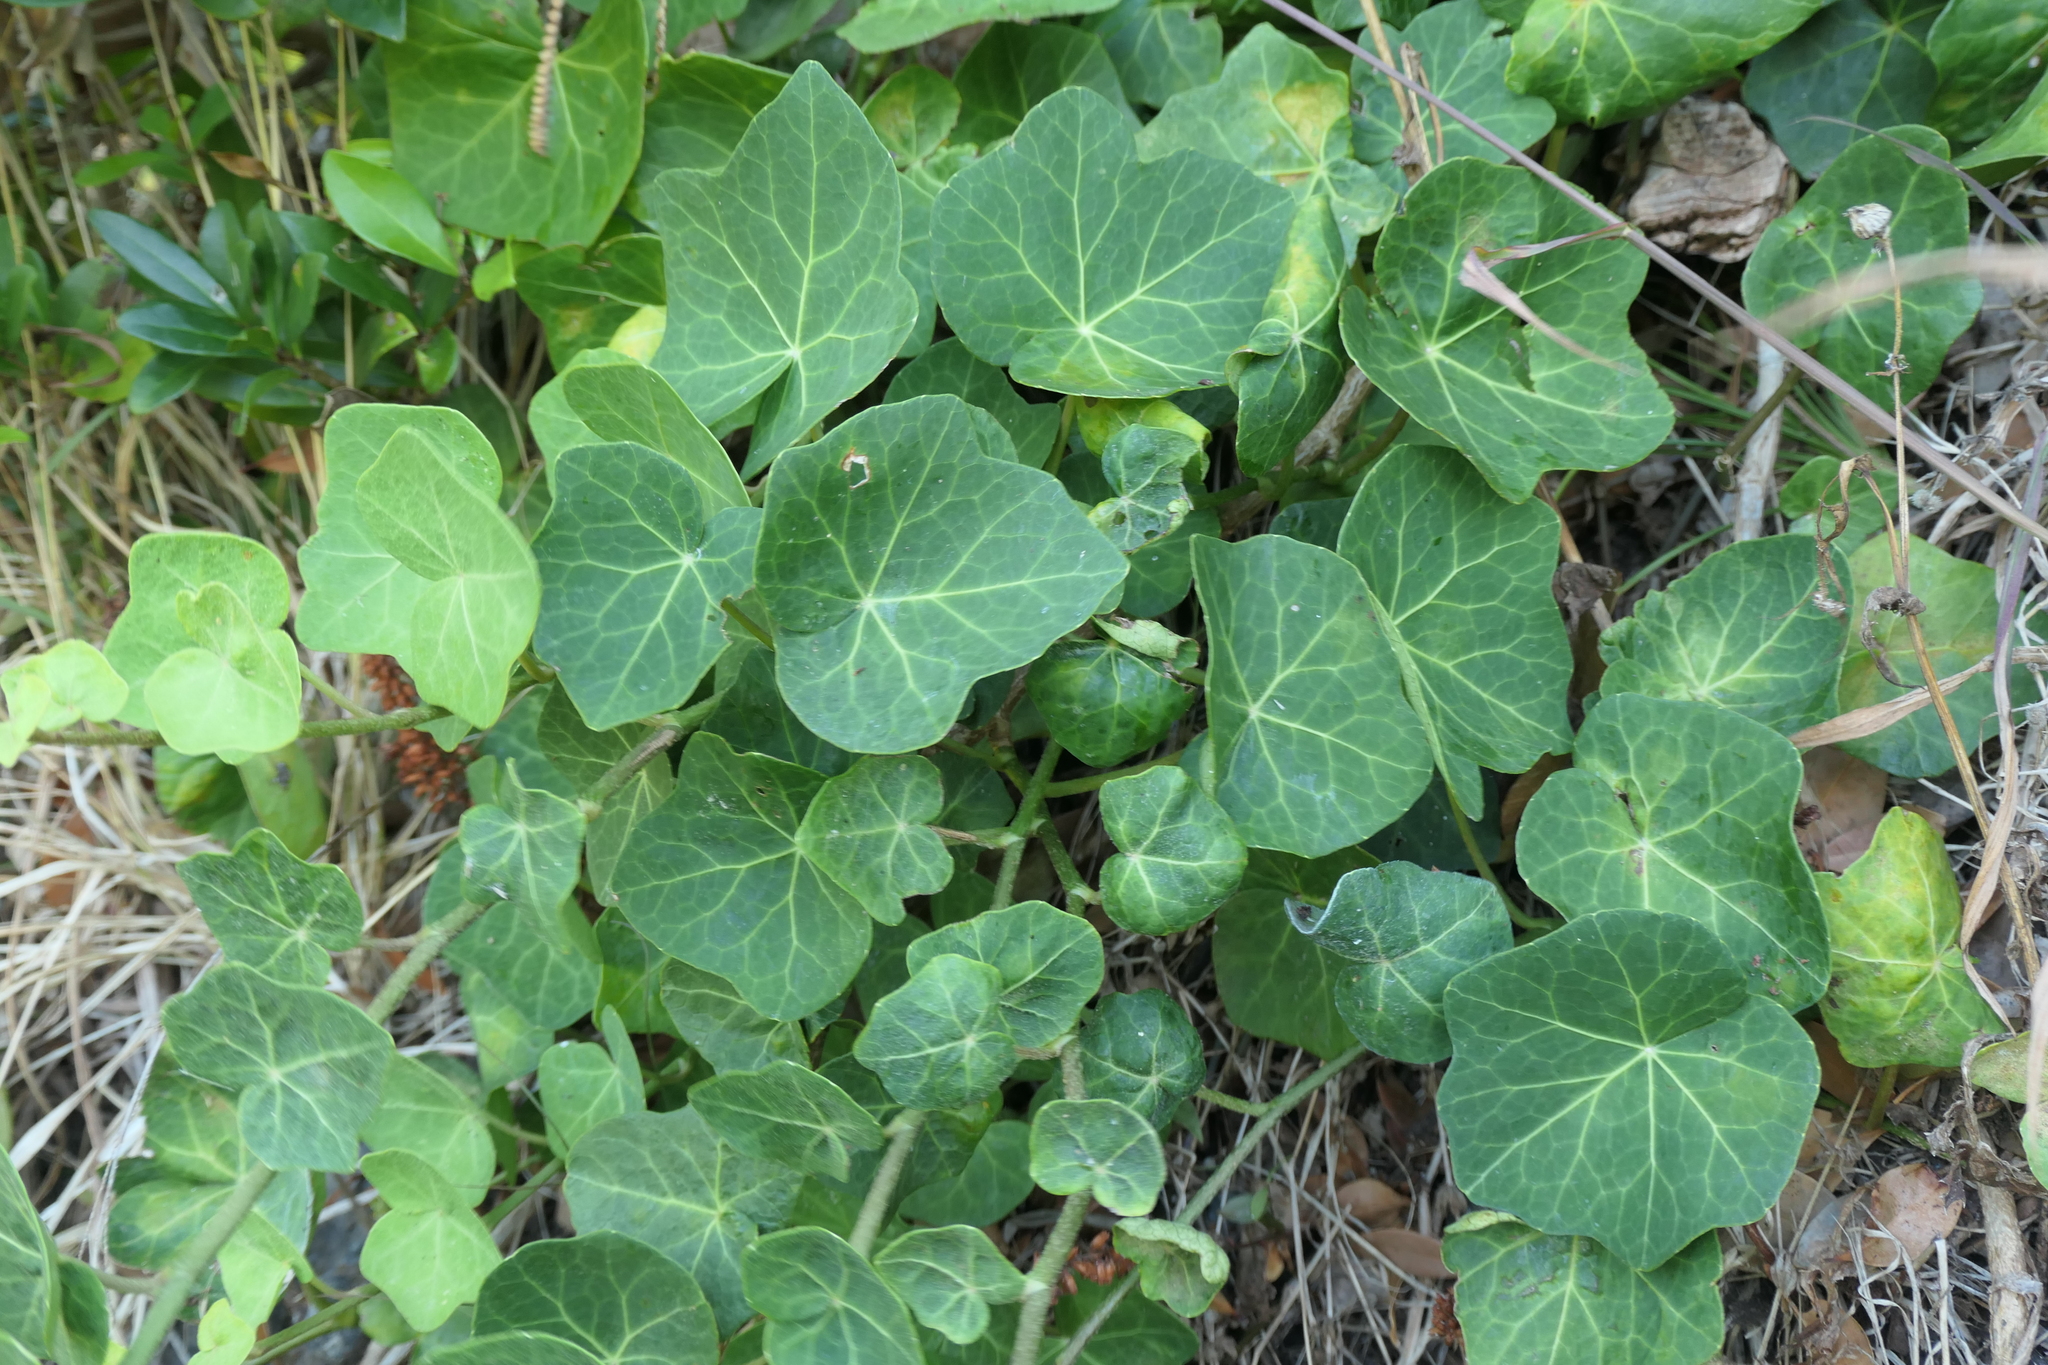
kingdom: Plantae
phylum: Tracheophyta
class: Magnoliopsida
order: Apiales
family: Araliaceae
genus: Hedera
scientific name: Hedera azorica
